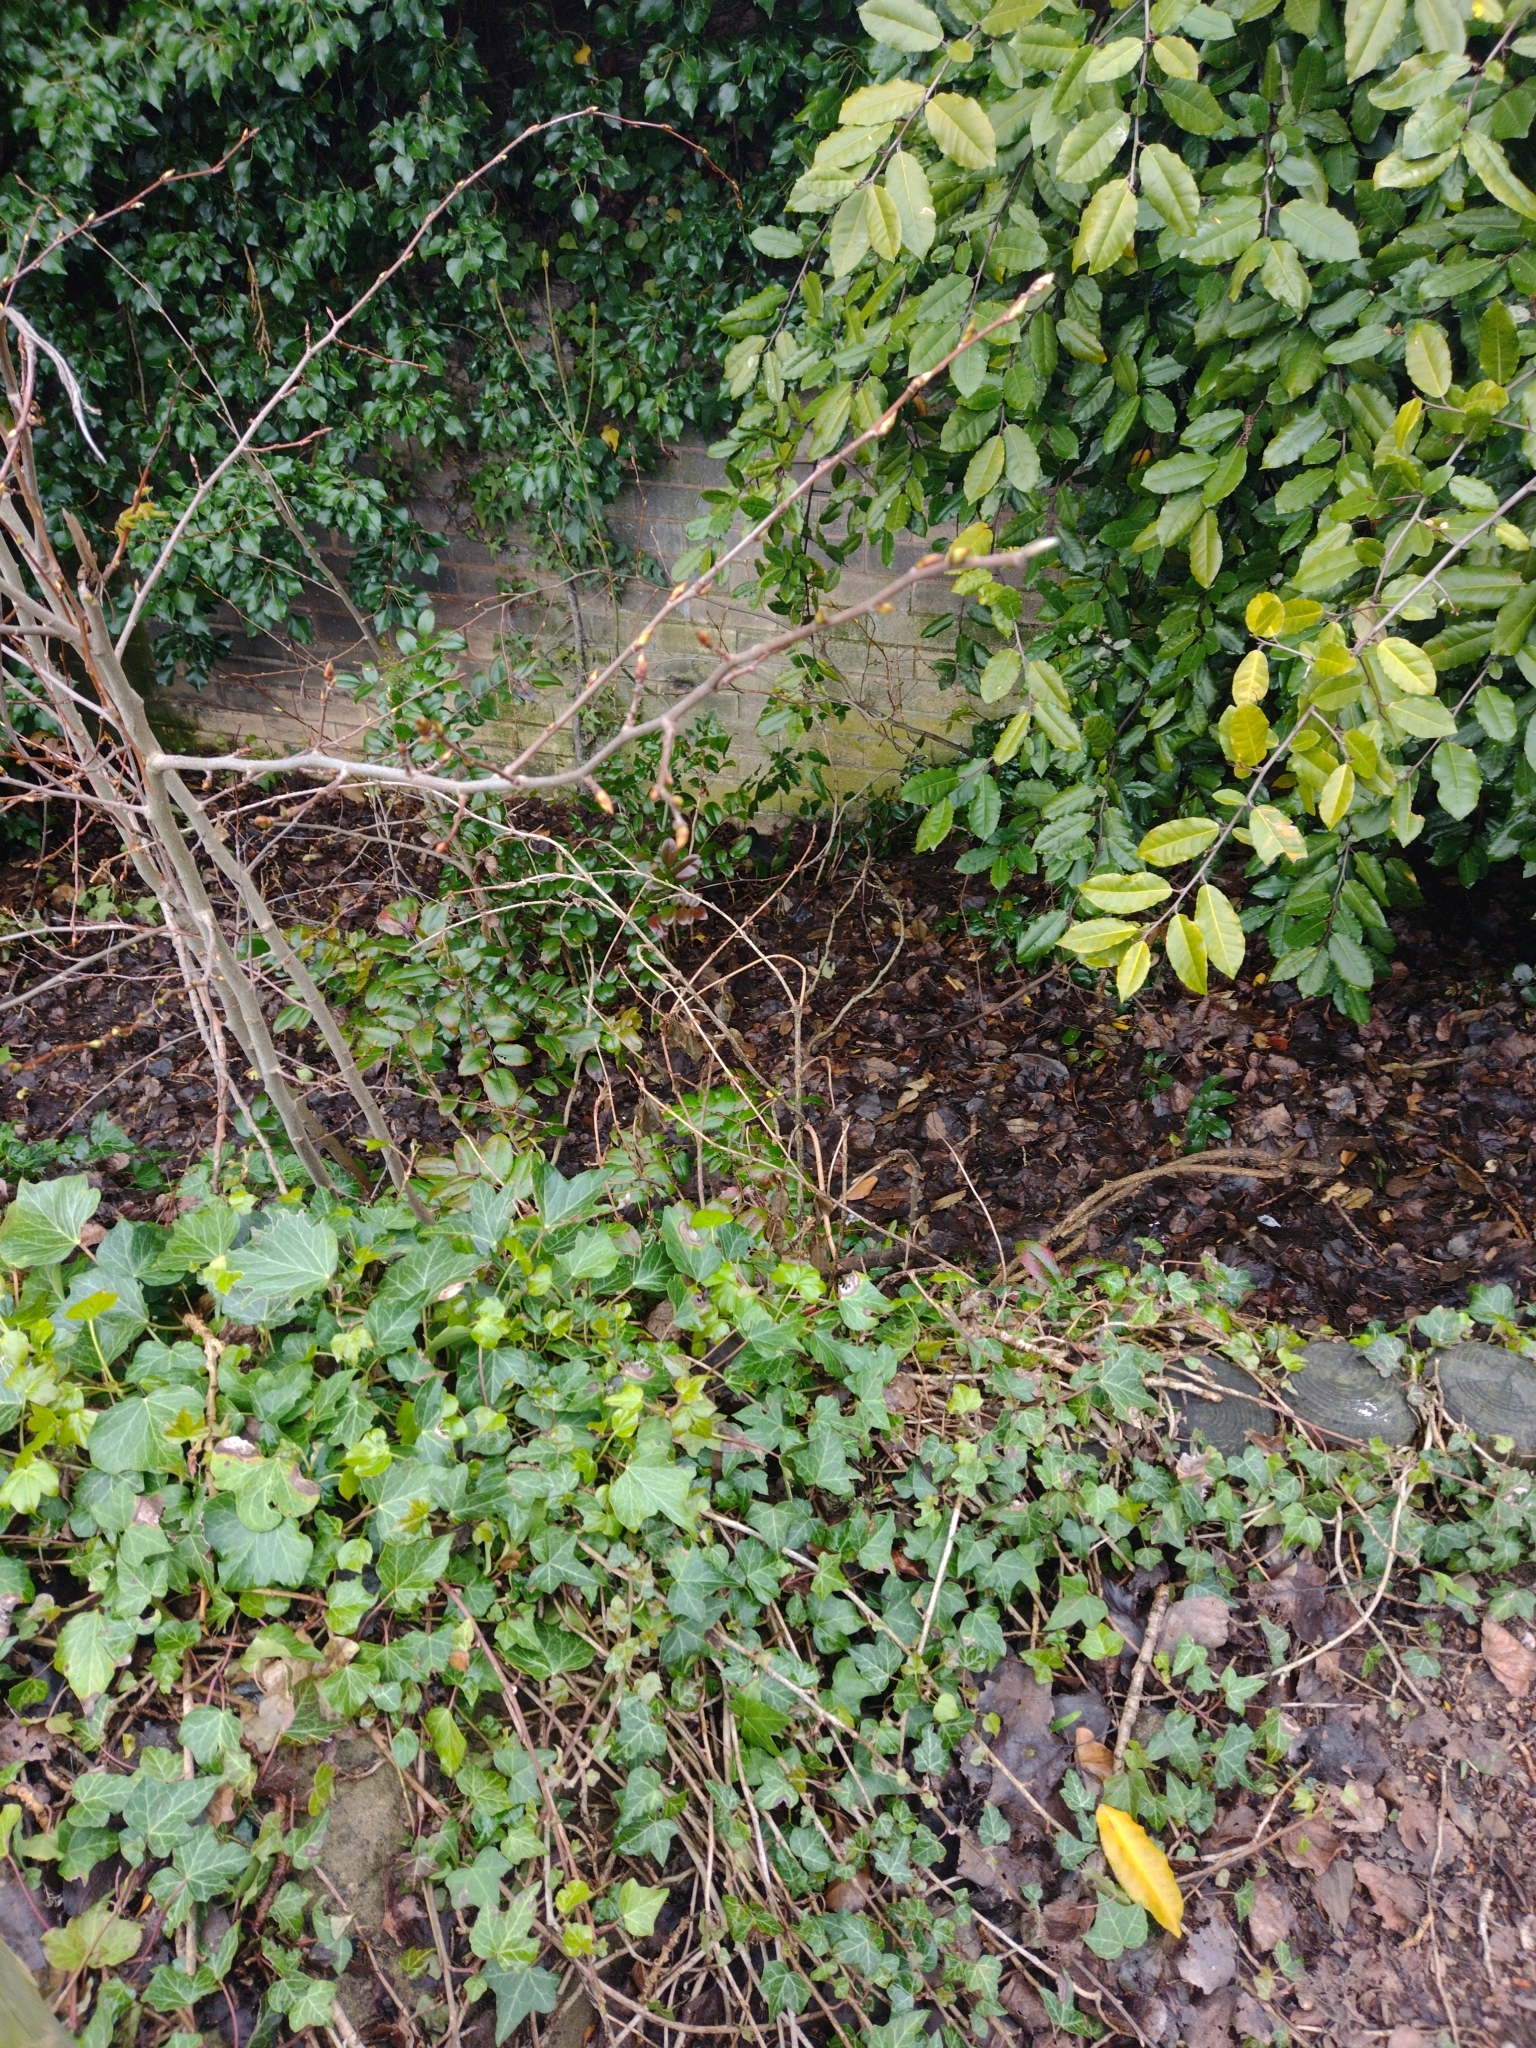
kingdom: Animalia
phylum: Chordata
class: Aves
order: Passeriformes
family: Turdidae
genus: Turdus
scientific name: Turdus merula
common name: Common blackbird
